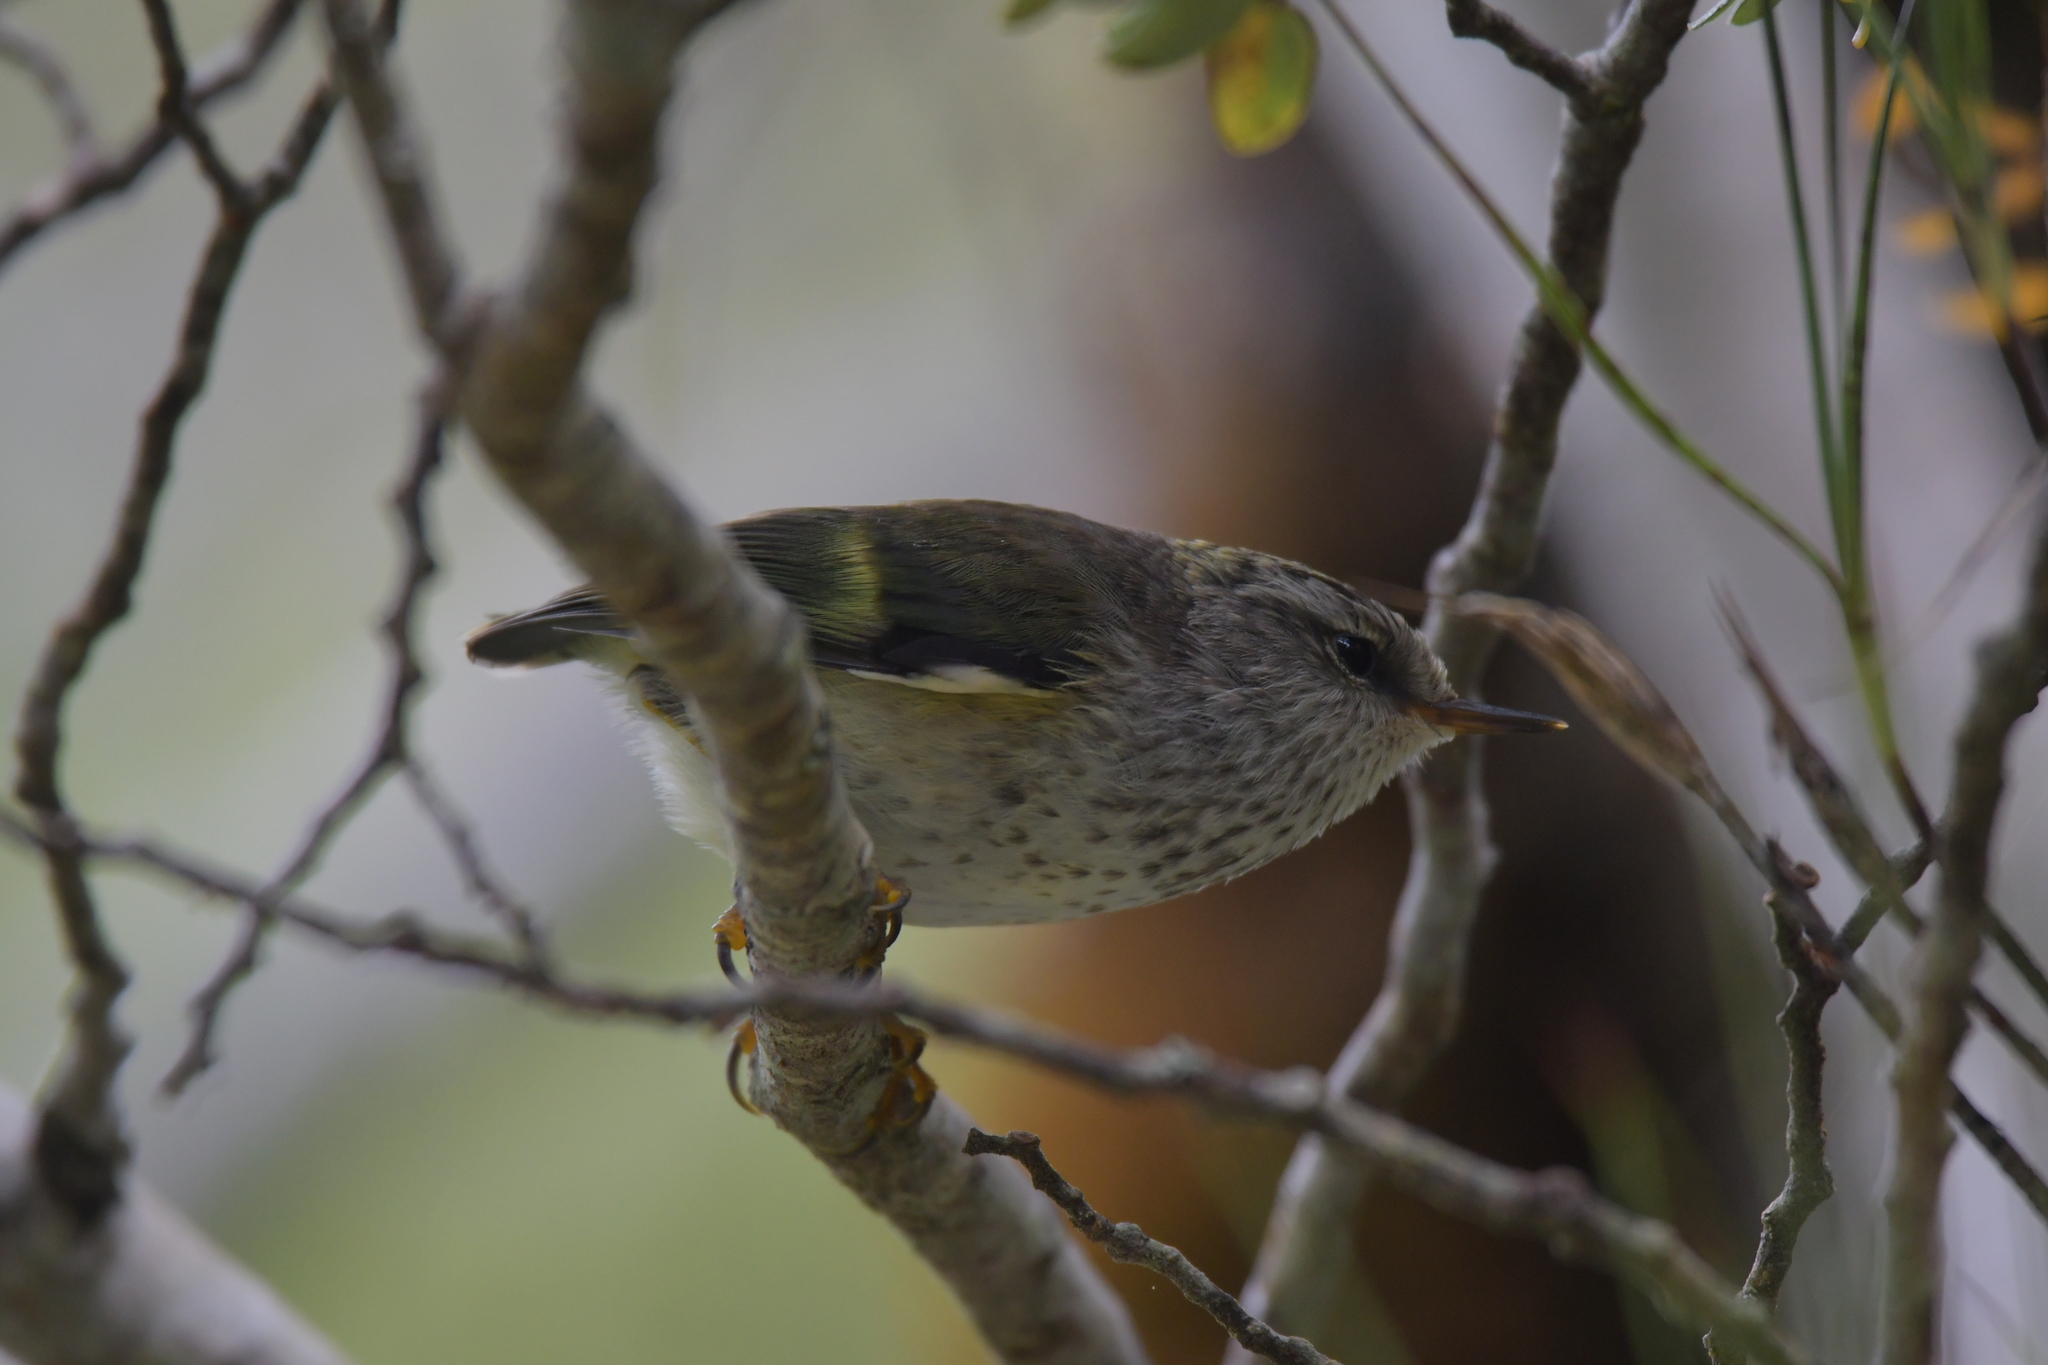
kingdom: Animalia
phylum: Chordata
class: Aves
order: Passeriformes
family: Acanthisittidae
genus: Acanthisitta
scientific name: Acanthisitta chloris
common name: Rifleman
